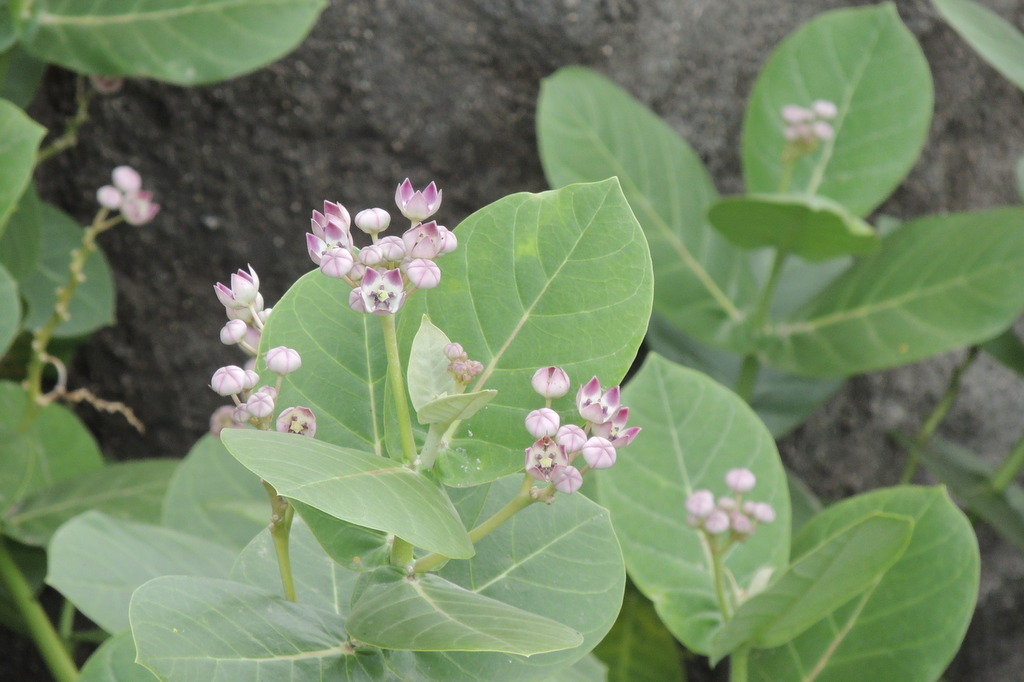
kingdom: Plantae
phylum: Tracheophyta
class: Magnoliopsida
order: Gentianales
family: Apocynaceae
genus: Calotropis
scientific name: Calotropis procera
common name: Roostertree
